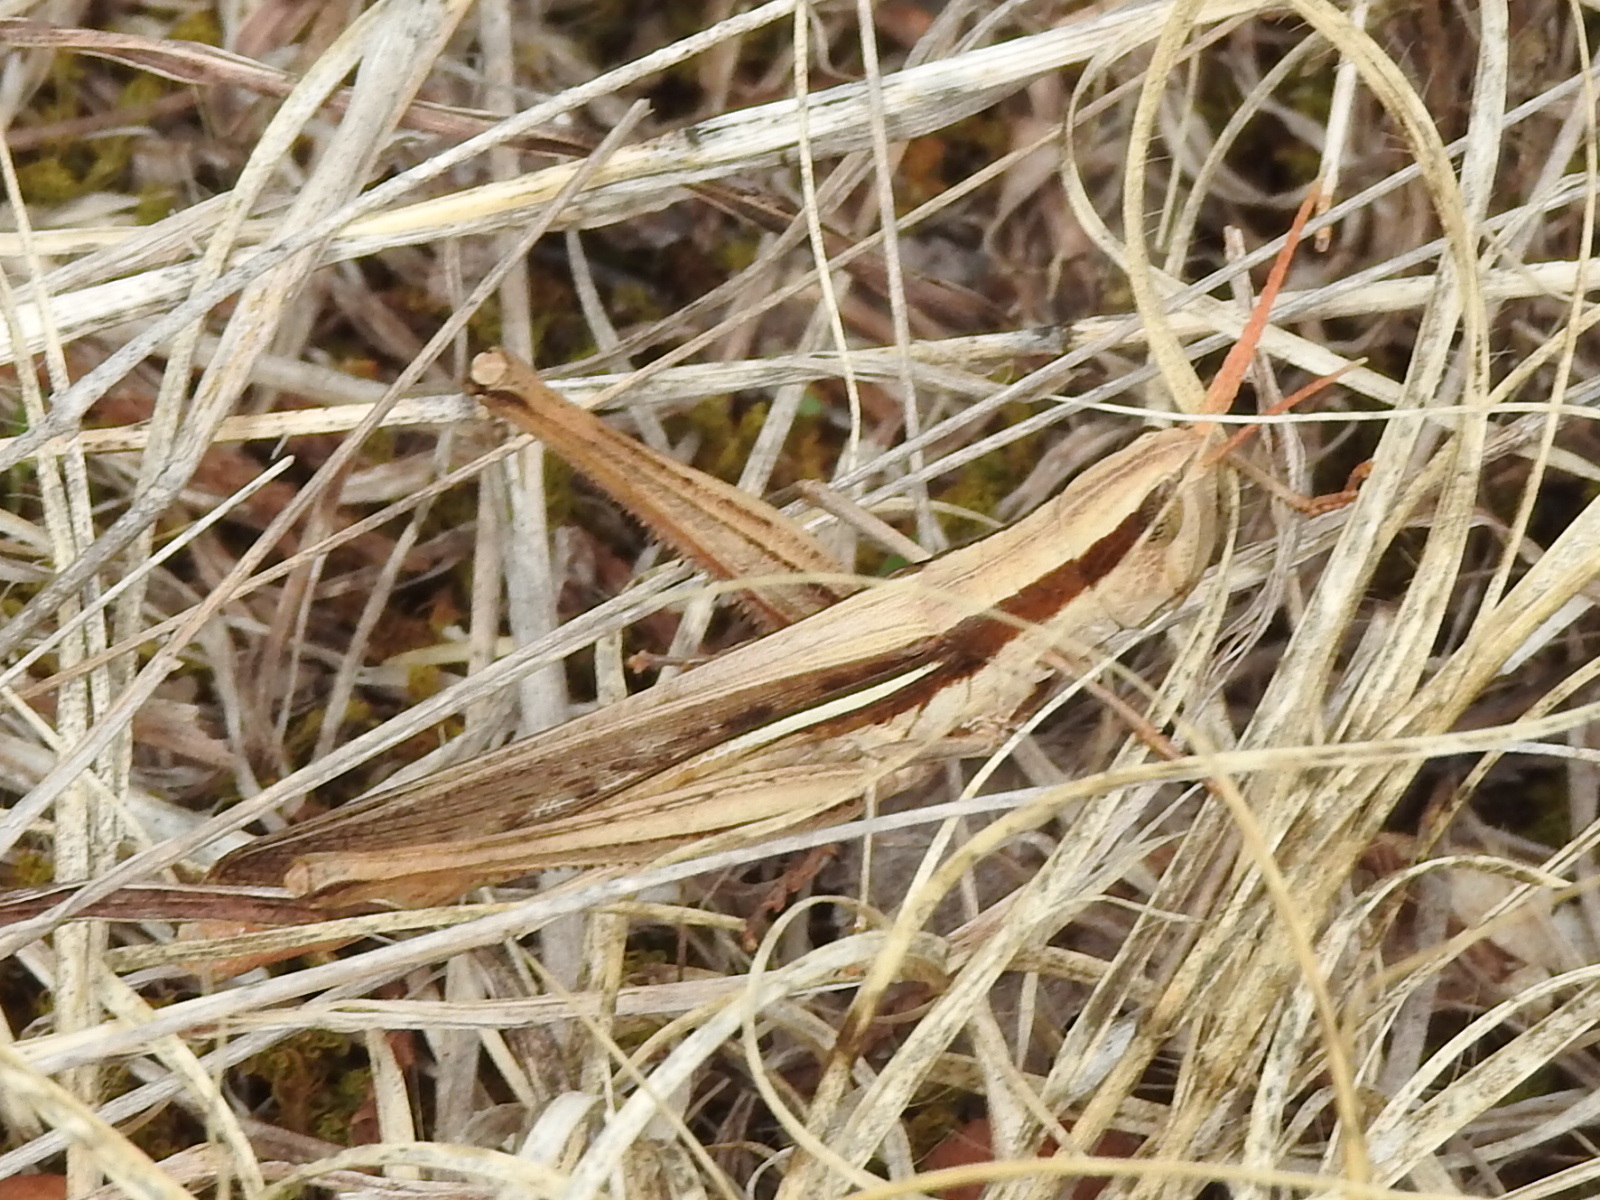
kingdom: Animalia
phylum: Arthropoda
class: Insecta
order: Orthoptera
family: Acrididae
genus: Mermiria
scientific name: Mermiria bivittata
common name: Two-striped mermiria grasshopper
